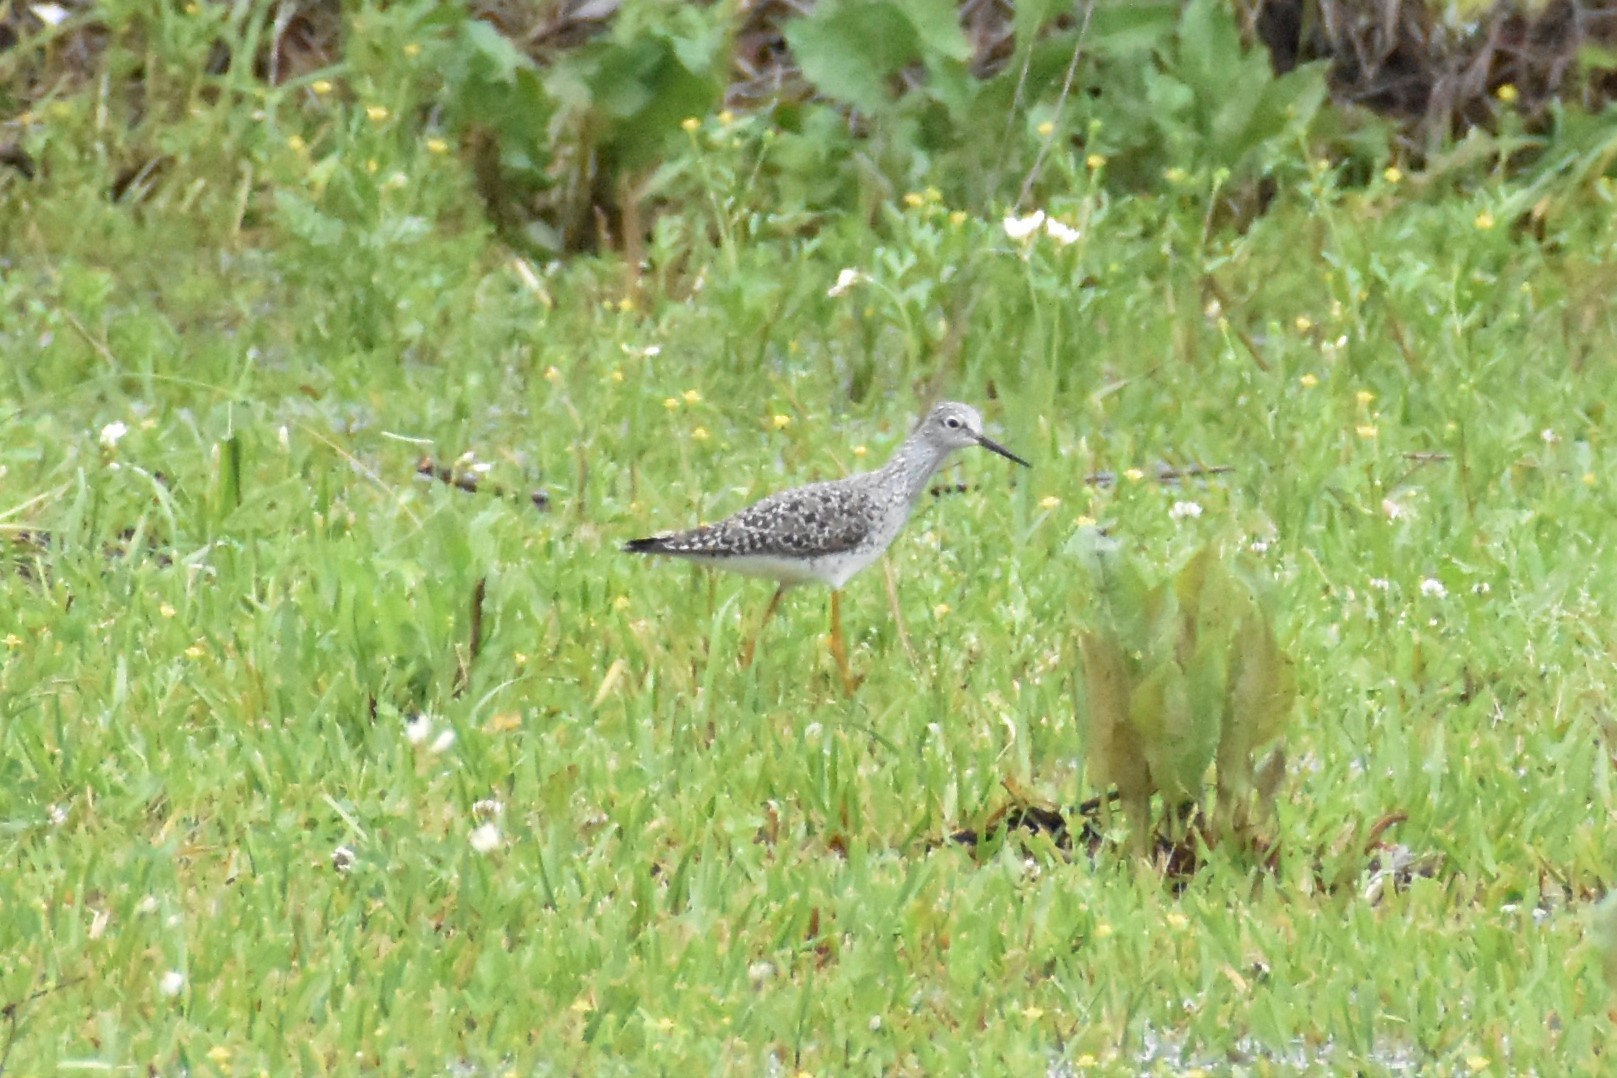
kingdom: Animalia
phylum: Chordata
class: Aves
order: Charadriiformes
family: Scolopacidae
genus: Tringa
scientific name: Tringa flavipes
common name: Lesser yellowlegs
